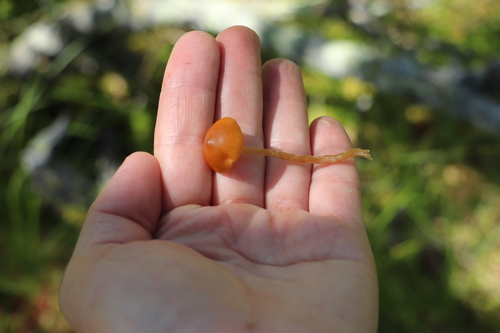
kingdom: Fungi
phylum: Basidiomycota
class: Agaricomycetes
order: Agaricales
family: Hymenogastraceae
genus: Galerina
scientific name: Galerina tibiicystis
